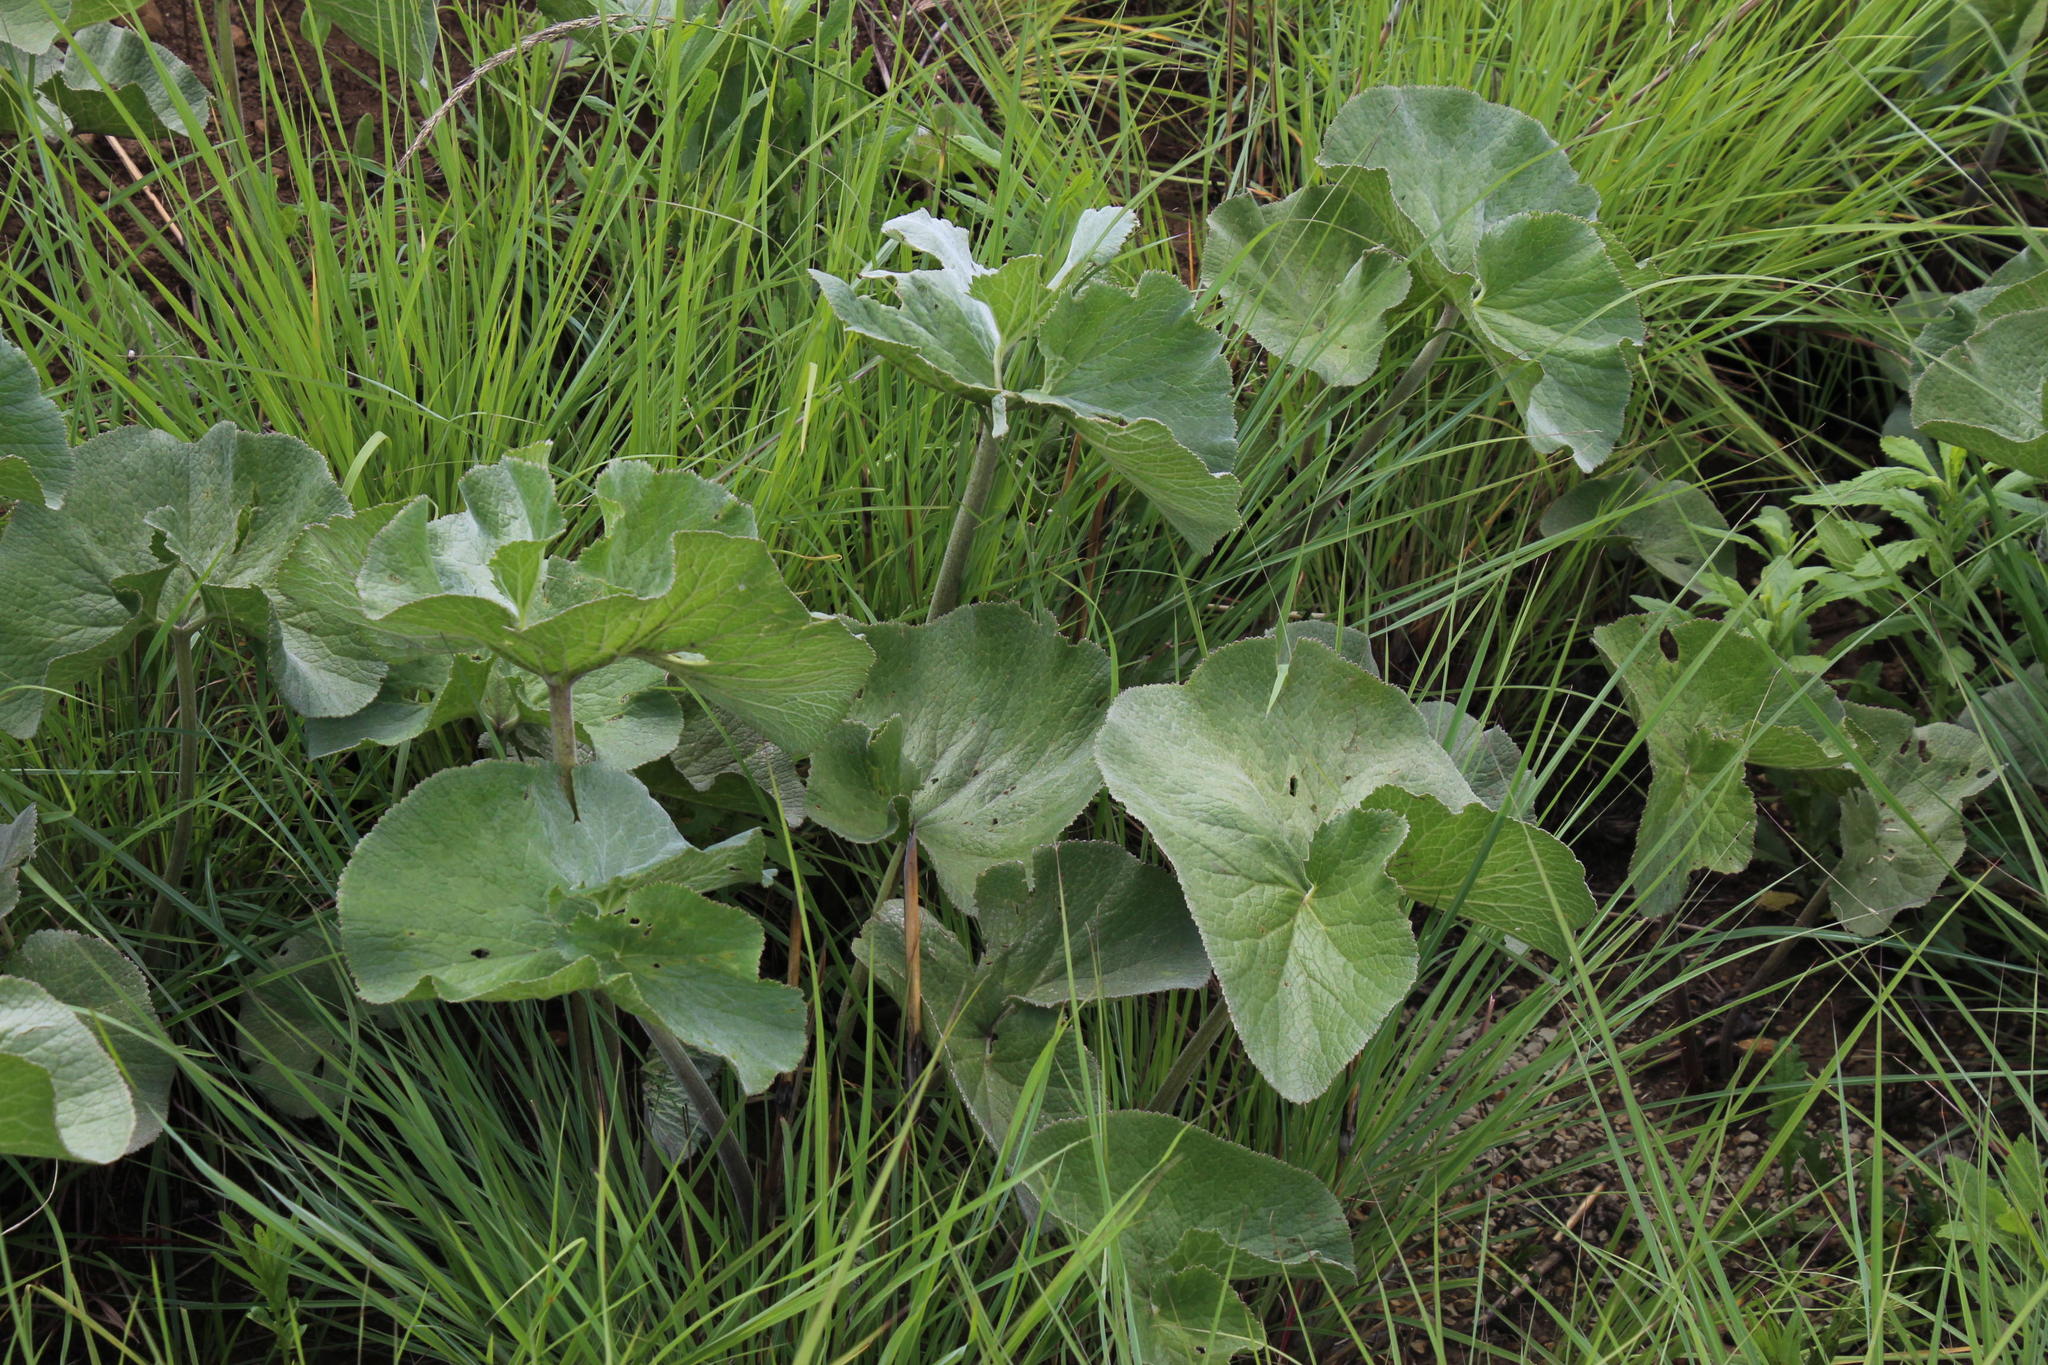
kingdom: Plantae
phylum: Tracheophyta
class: Magnoliopsida
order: Gunnerales
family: Gunneraceae
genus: Gunnera
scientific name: Gunnera perpensa
